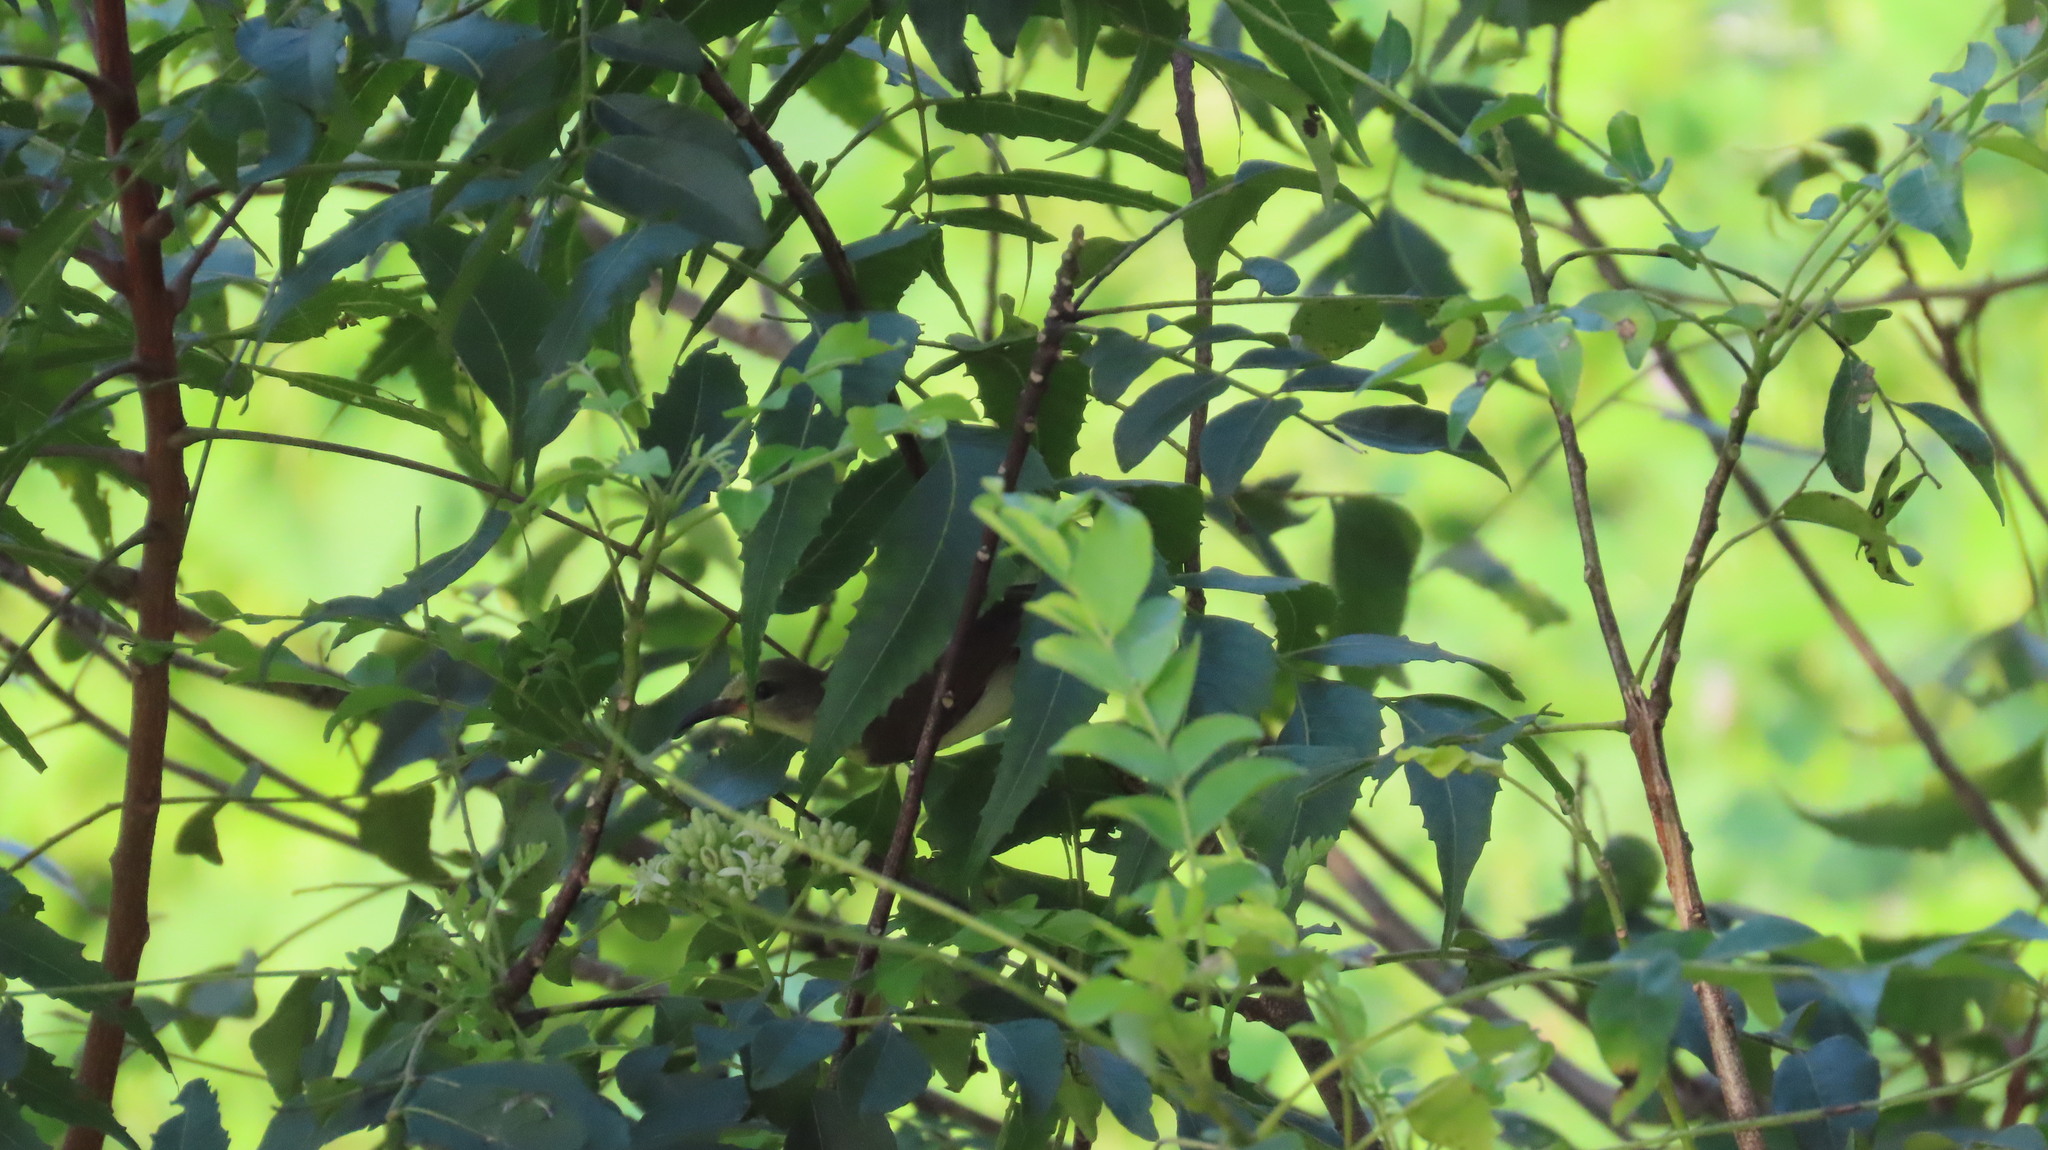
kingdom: Animalia
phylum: Chordata
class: Aves
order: Passeriformes
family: Nectariniidae
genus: Leptocoma
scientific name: Leptocoma zeylonica
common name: Purple-rumped sunbird
